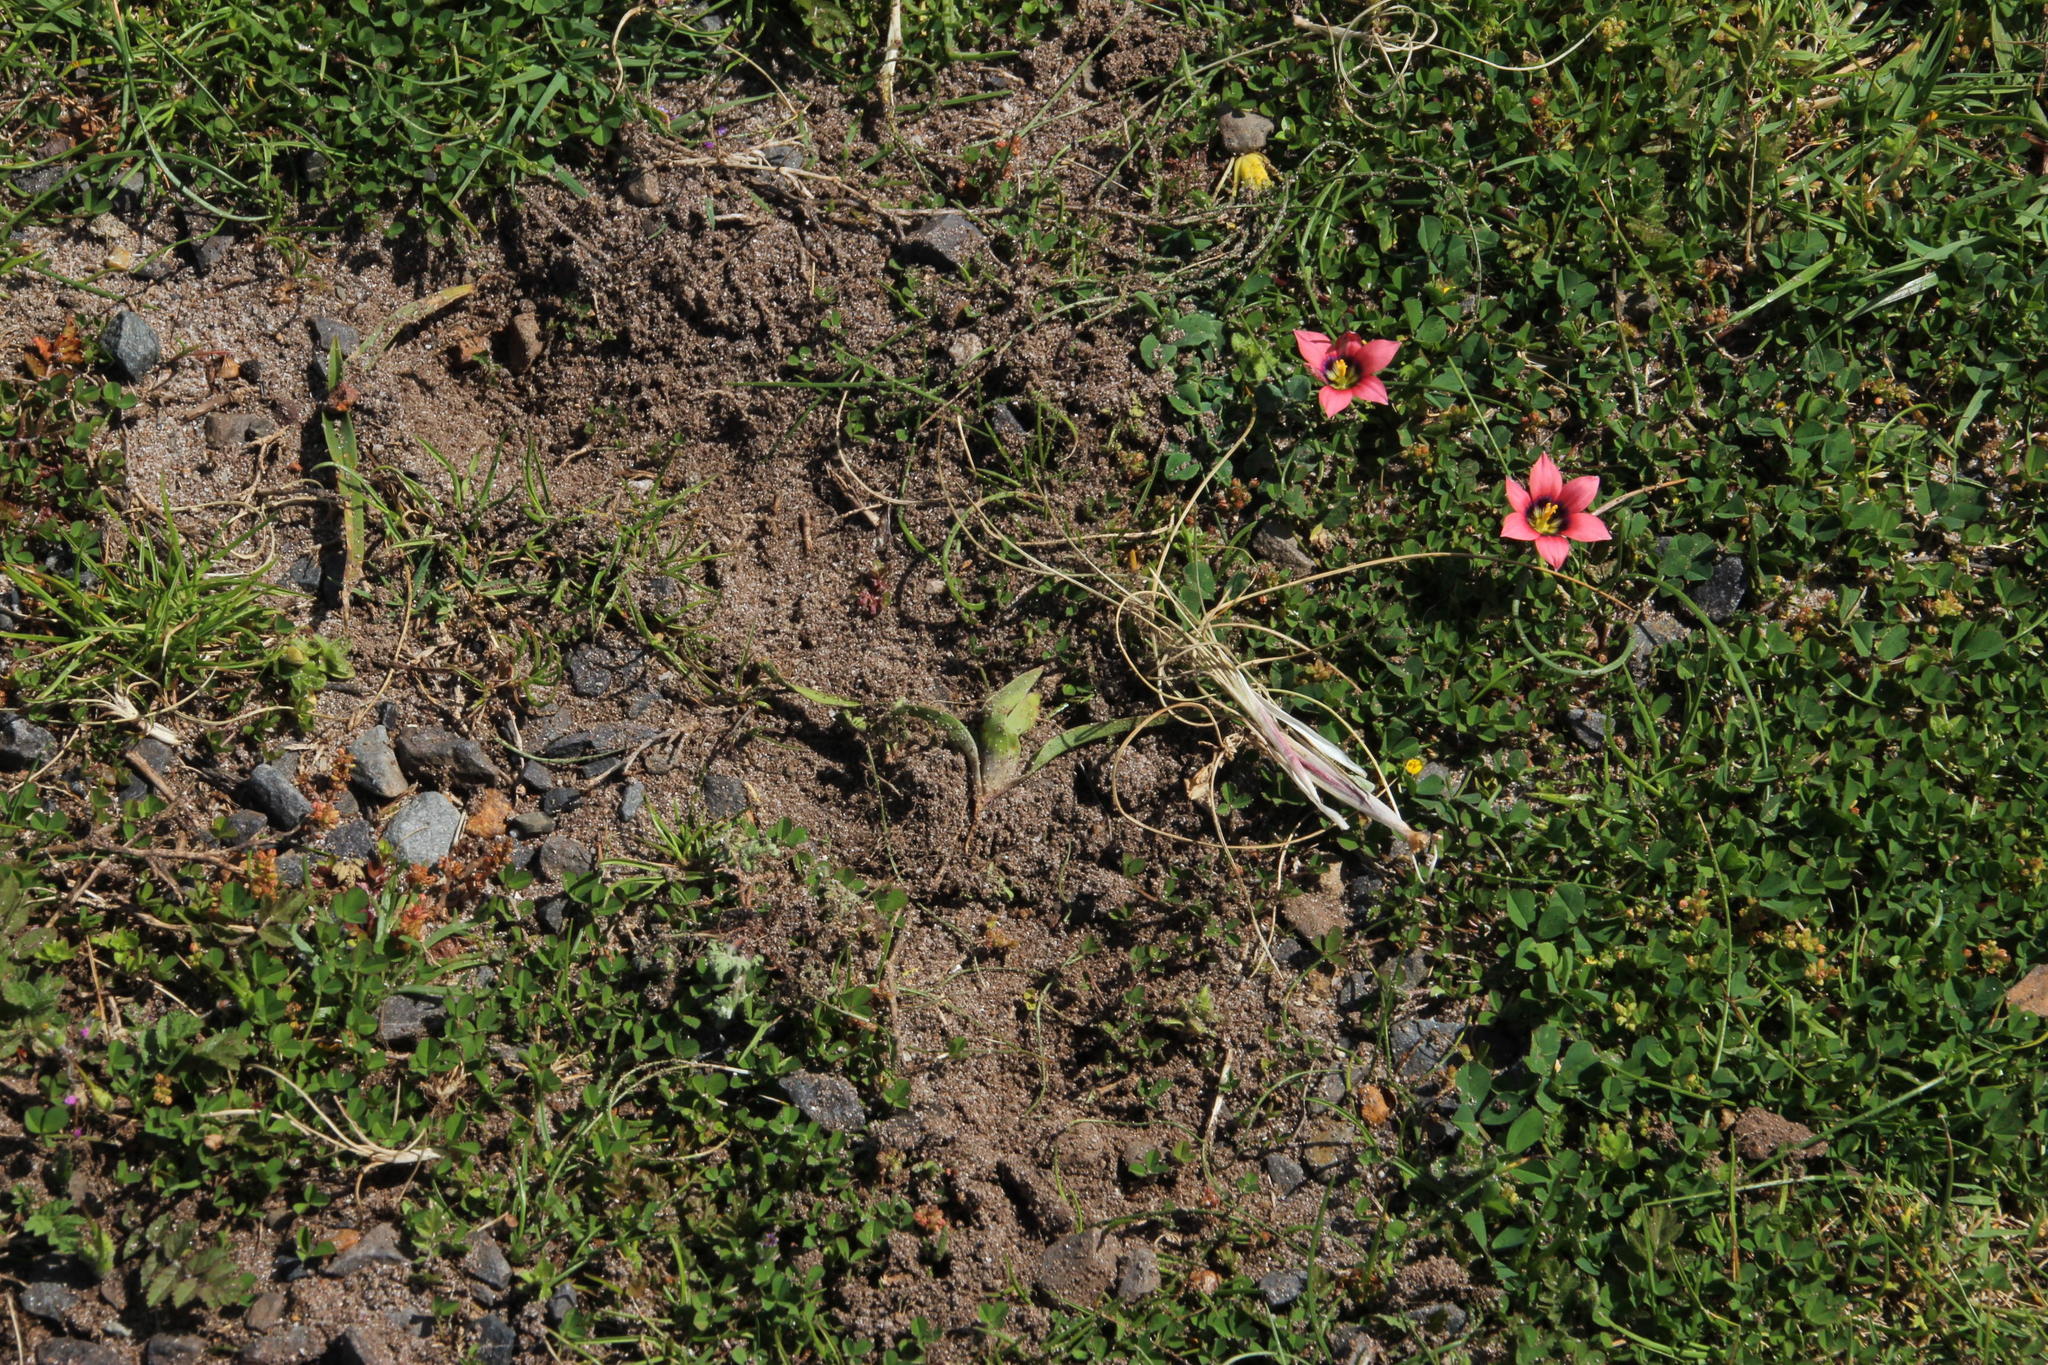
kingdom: Animalia
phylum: Chordata
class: Mammalia
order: Primates
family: Cercopithecidae
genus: Papio
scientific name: Papio ursinus
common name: Chacma baboon
